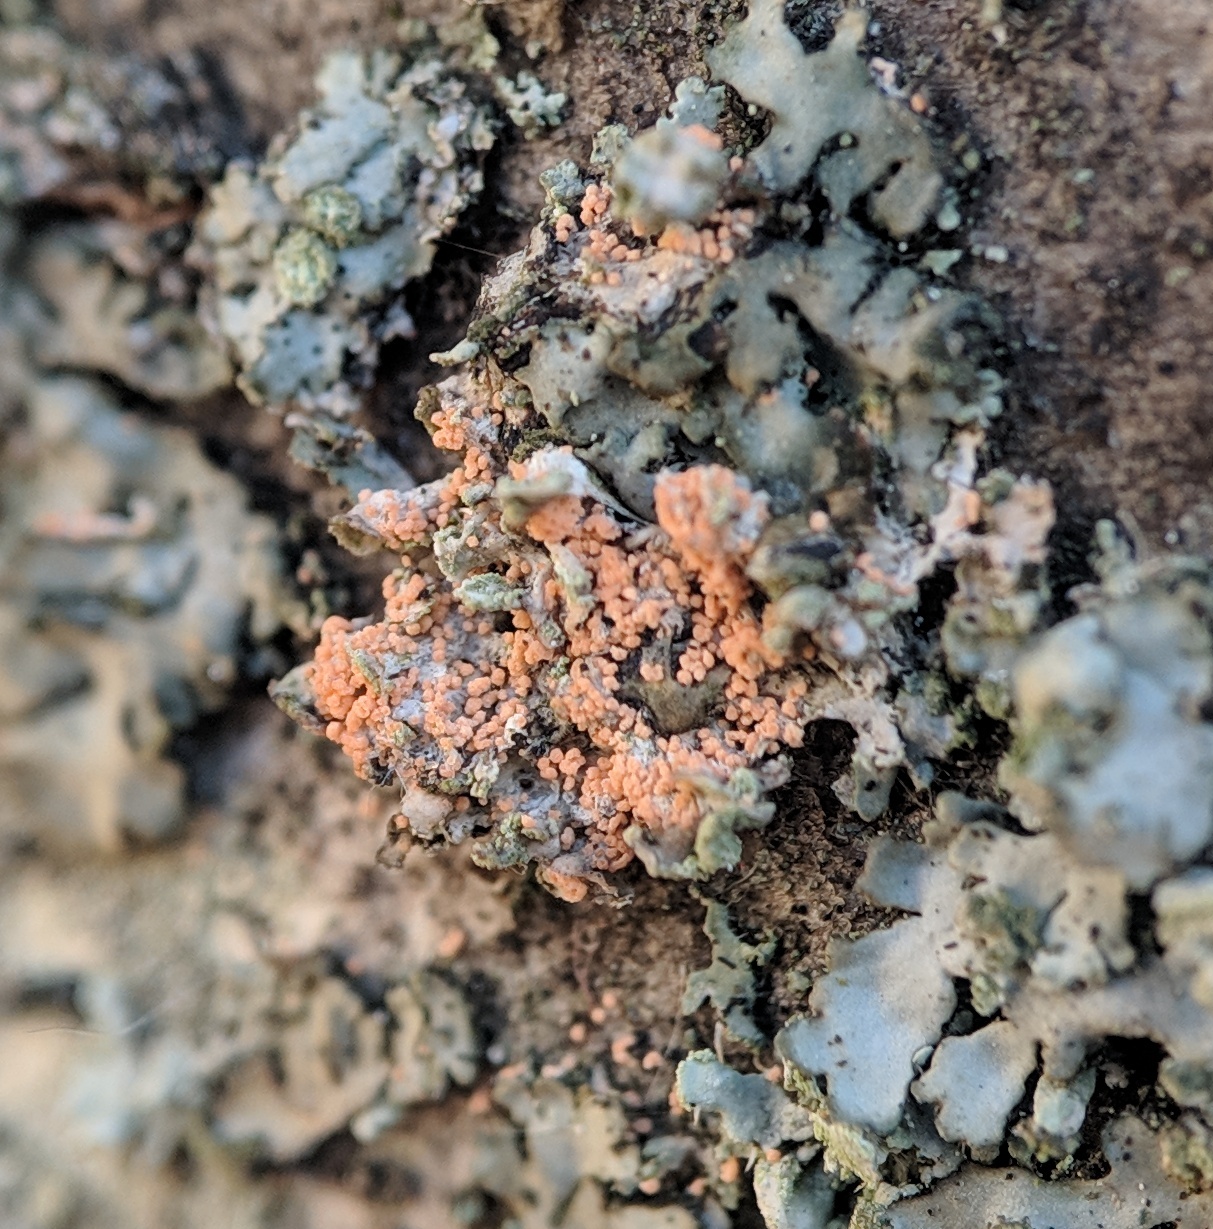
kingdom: Fungi
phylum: Basidiomycota
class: Agaricomycetes
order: Corticiales
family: Corticiaceae
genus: Erythricium
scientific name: Erythricium aurantiacum
